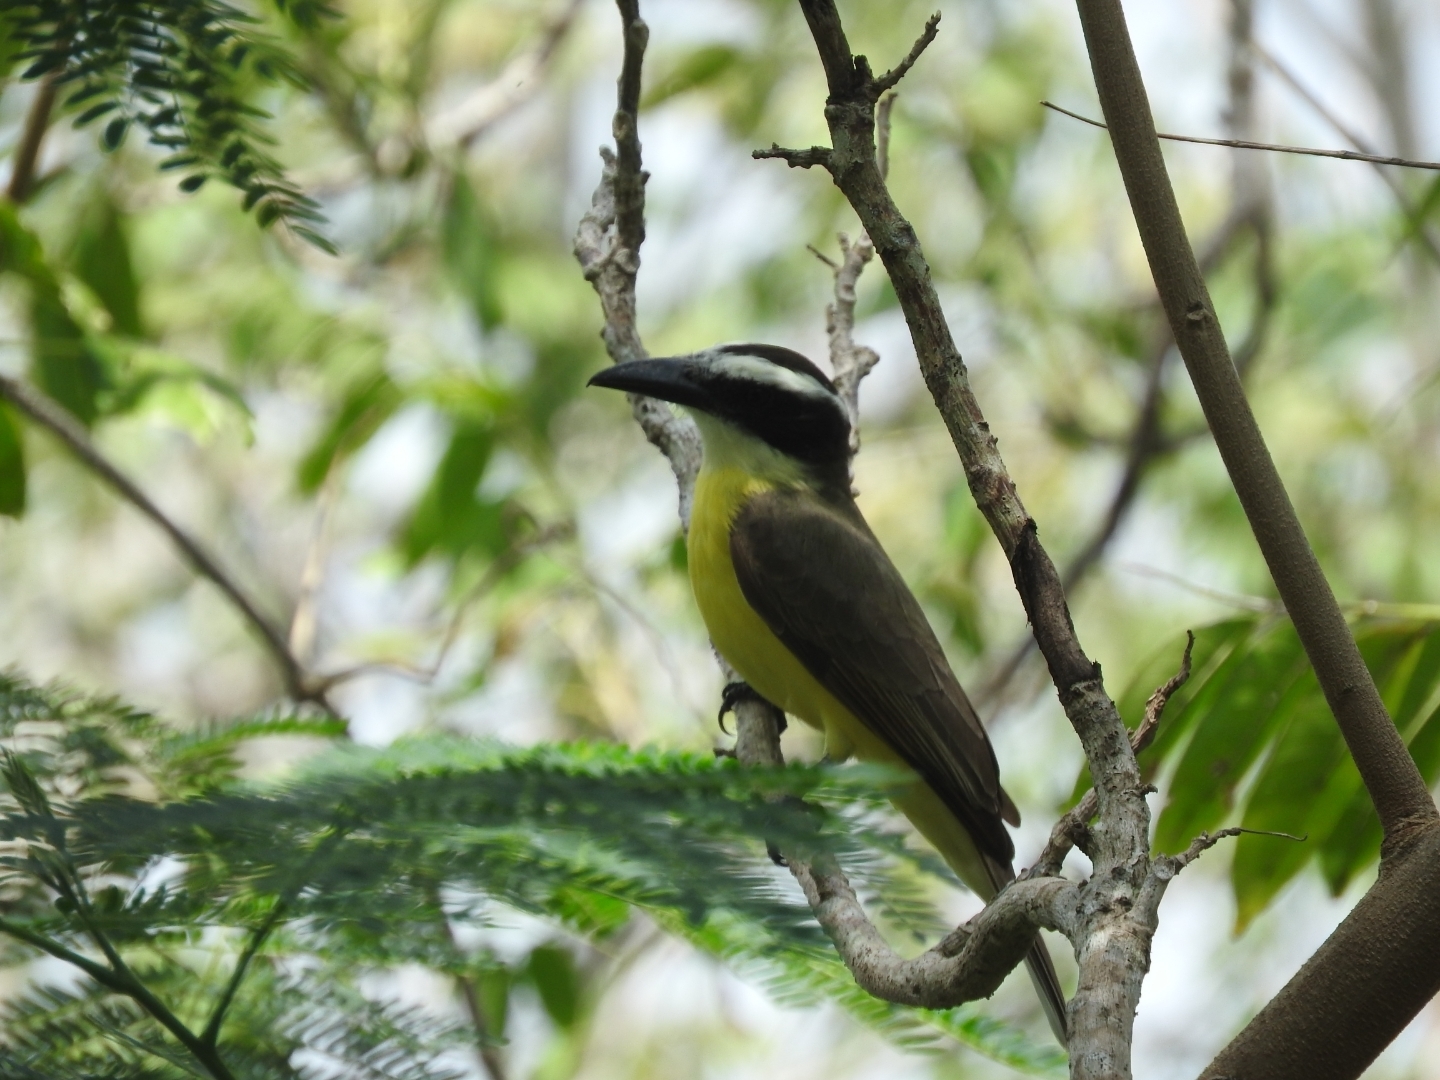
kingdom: Animalia
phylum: Chordata
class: Aves
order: Passeriformes
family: Tyrannidae
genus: Megarynchus
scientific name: Megarynchus pitangua
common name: Boat-billed flycatcher
